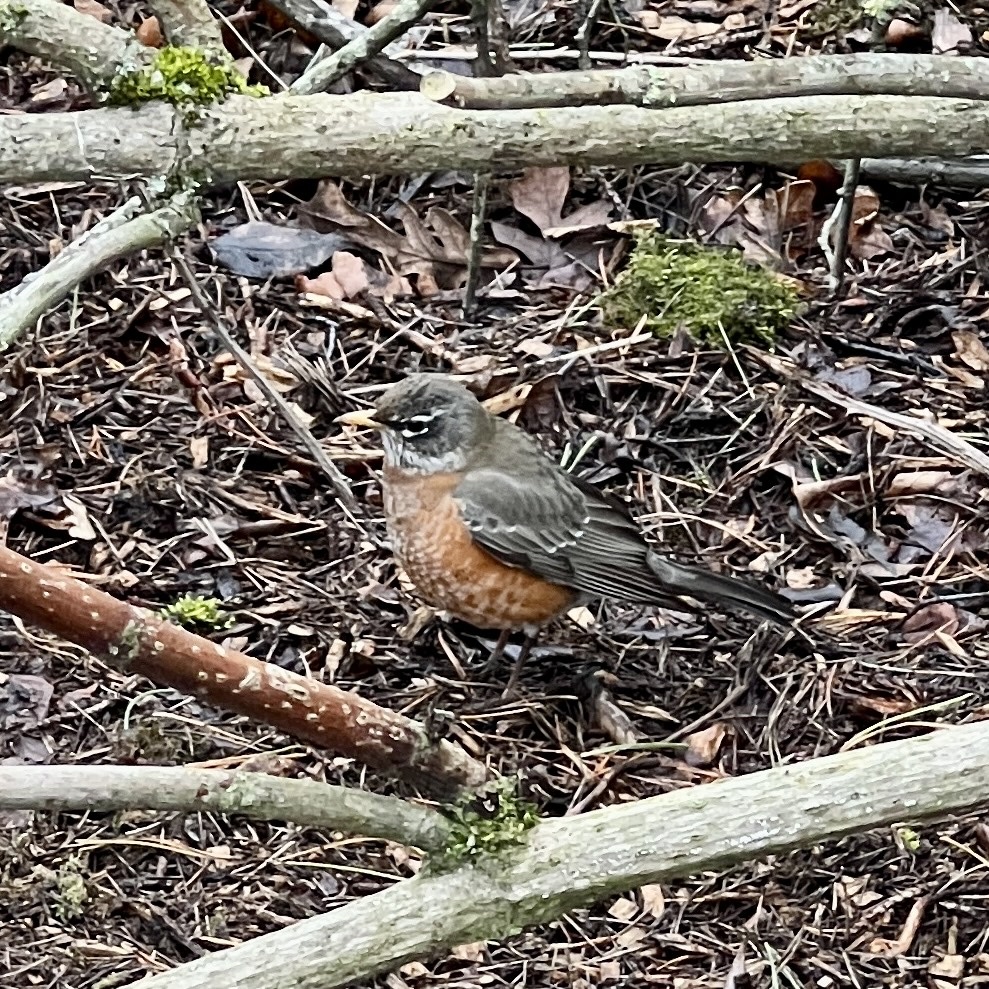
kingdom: Animalia
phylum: Chordata
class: Aves
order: Passeriformes
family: Turdidae
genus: Turdus
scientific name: Turdus migratorius
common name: American robin
